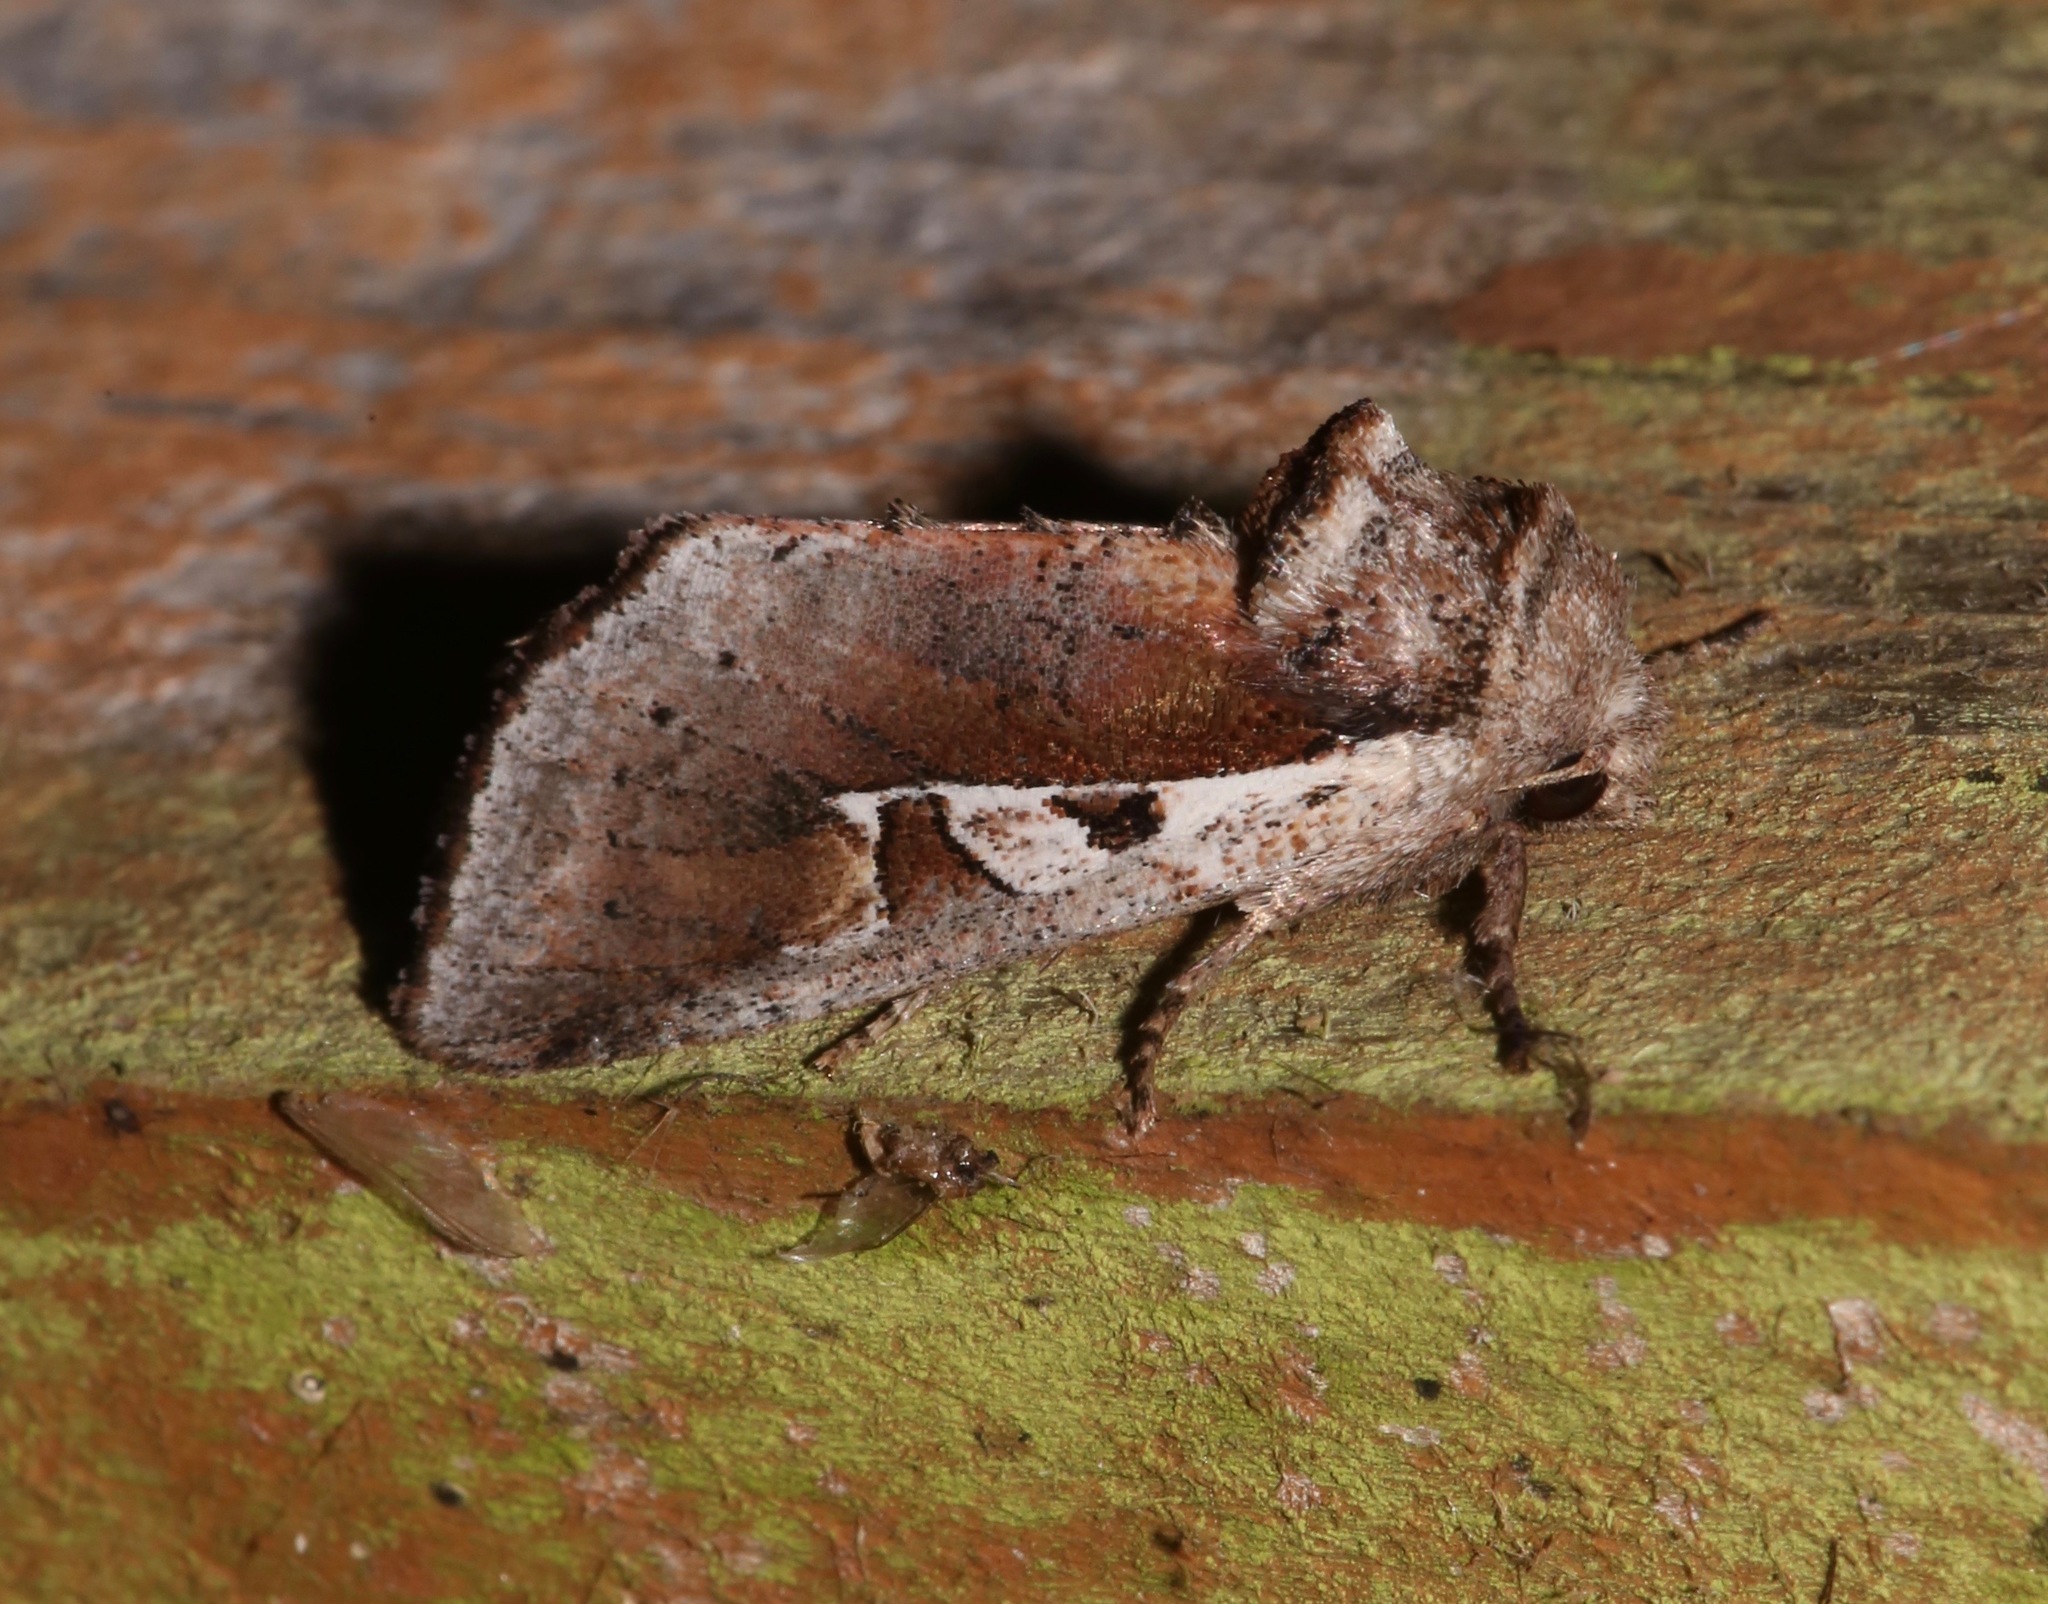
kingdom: Animalia
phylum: Arthropoda
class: Insecta
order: Lepidoptera
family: Noctuidae
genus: Meropleon
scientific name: Meropleon cosmion
